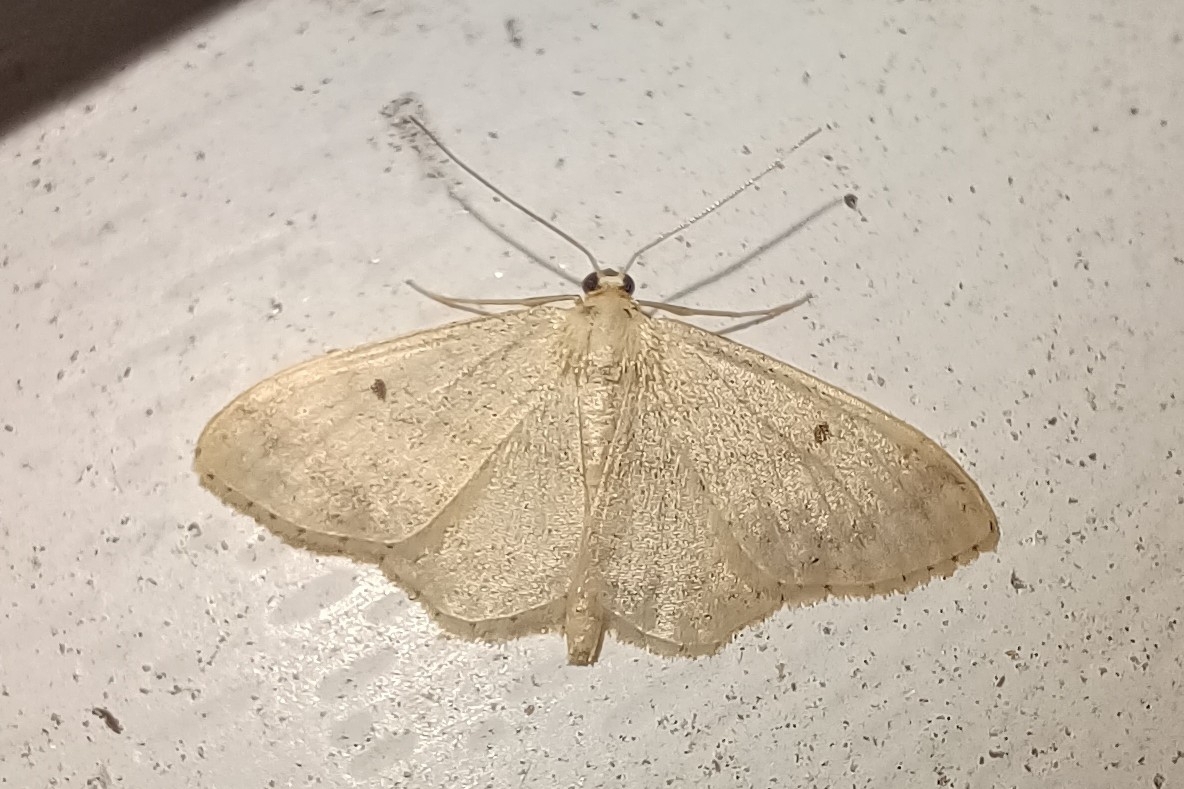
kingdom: Animalia
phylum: Arthropoda
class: Insecta
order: Lepidoptera
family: Geometridae
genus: Idaea
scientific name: Idaea biselata
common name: Small fan-footed wave
